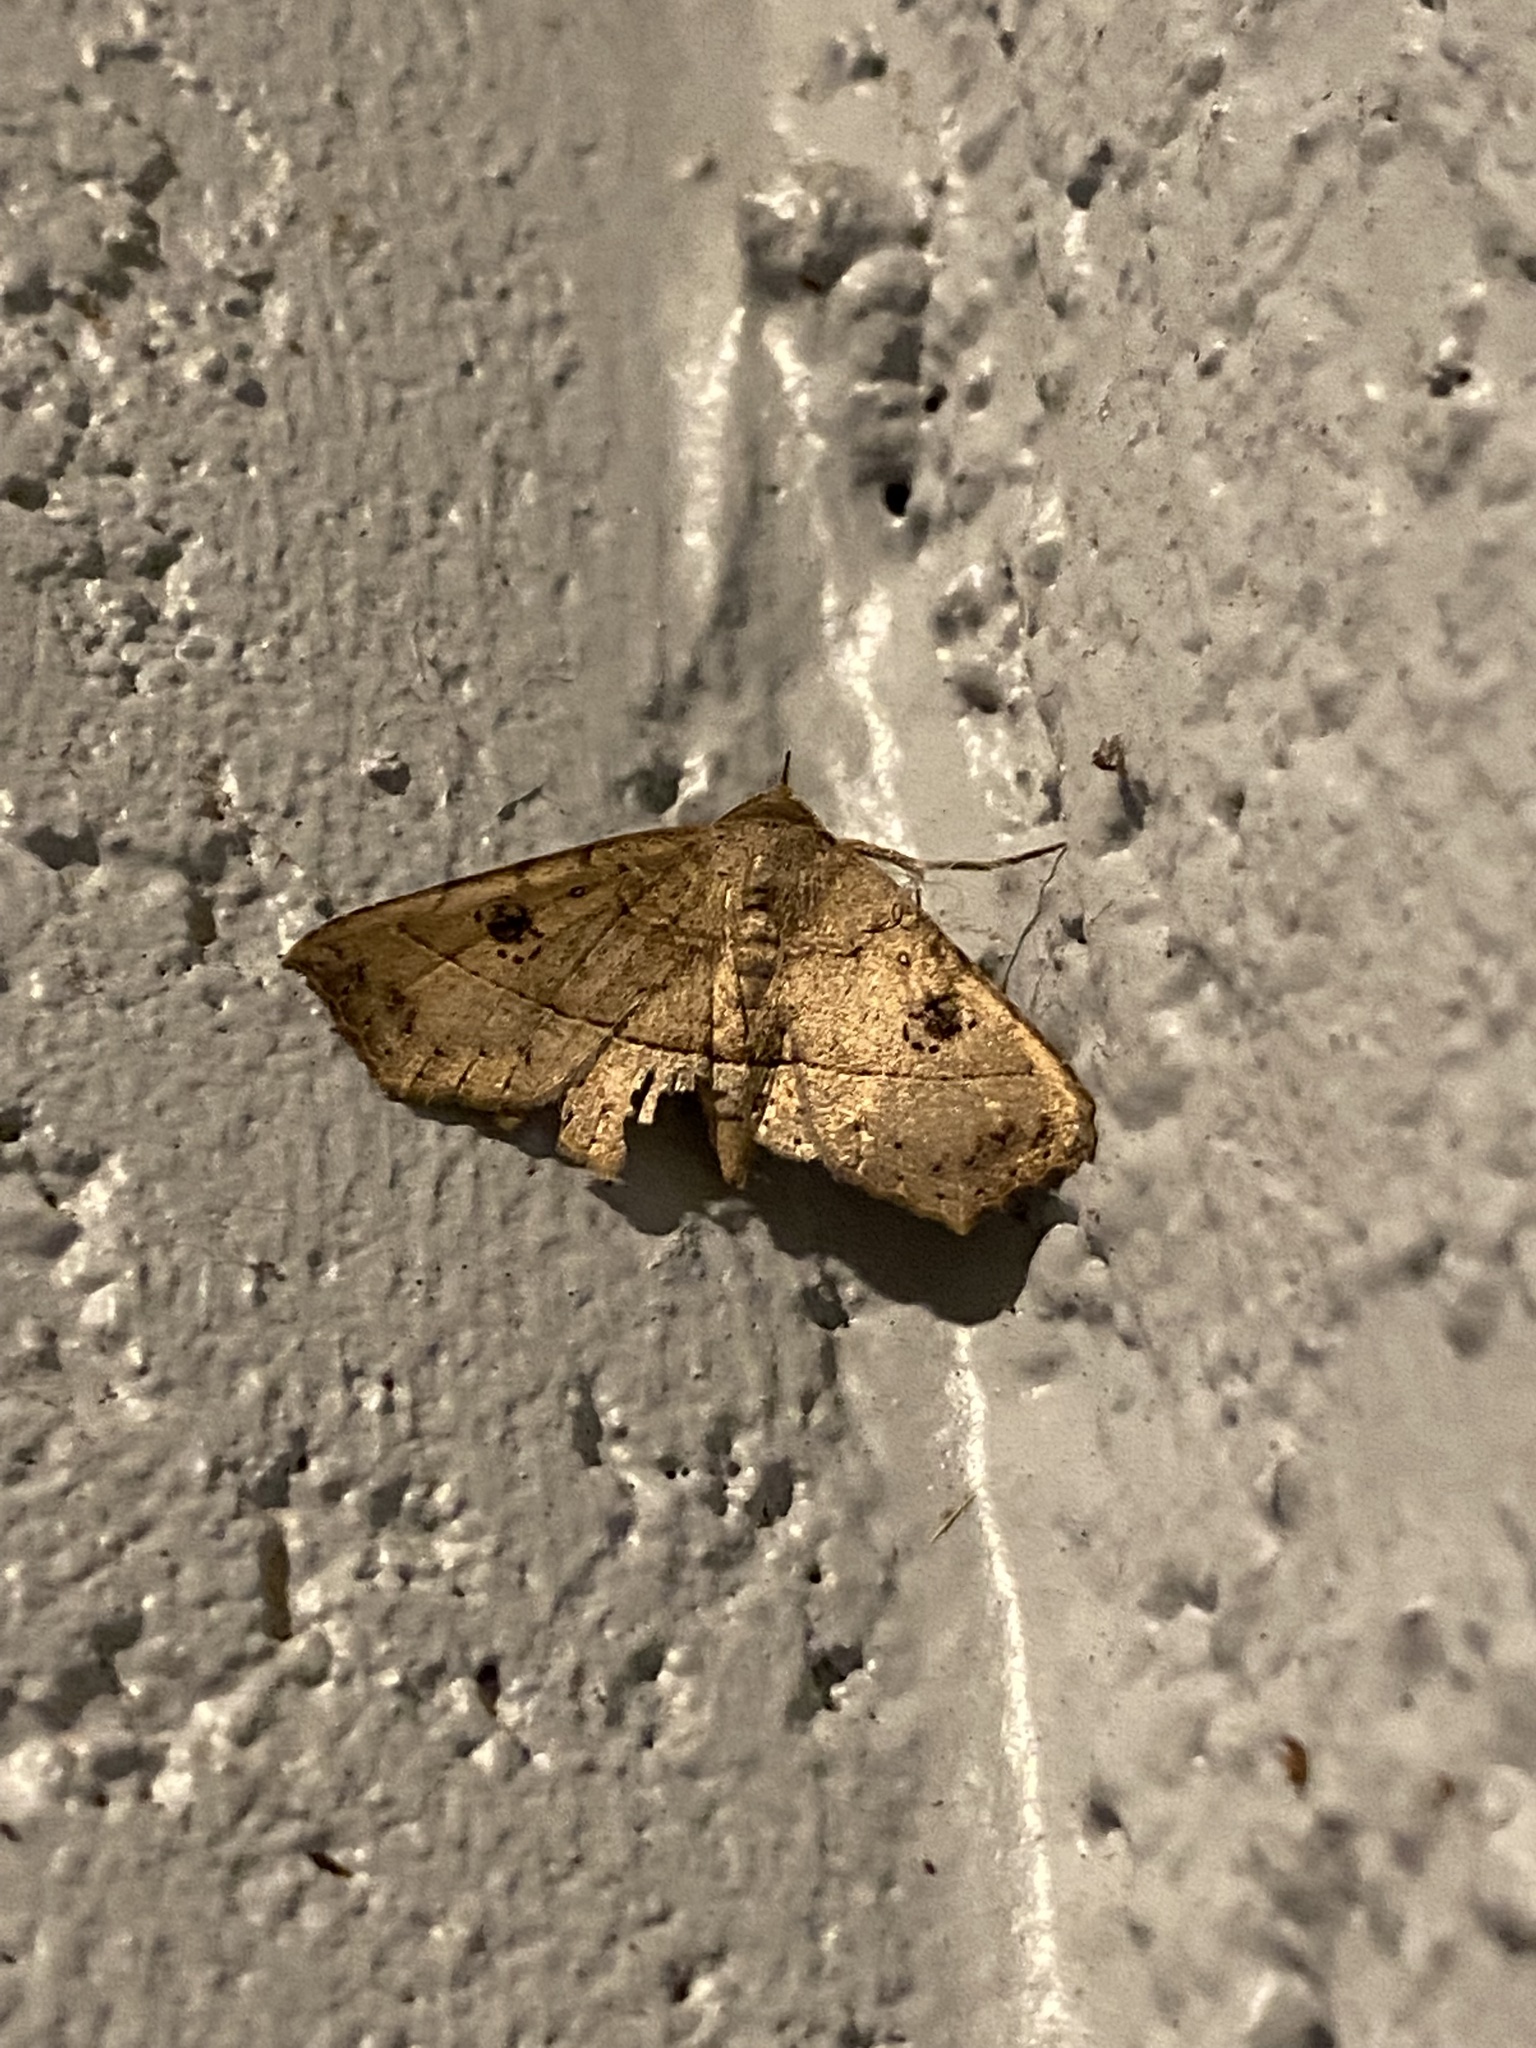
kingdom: Animalia
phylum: Arthropoda
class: Insecta
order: Lepidoptera
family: Erebidae
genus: Ephyrodes
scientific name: Ephyrodes cacata
